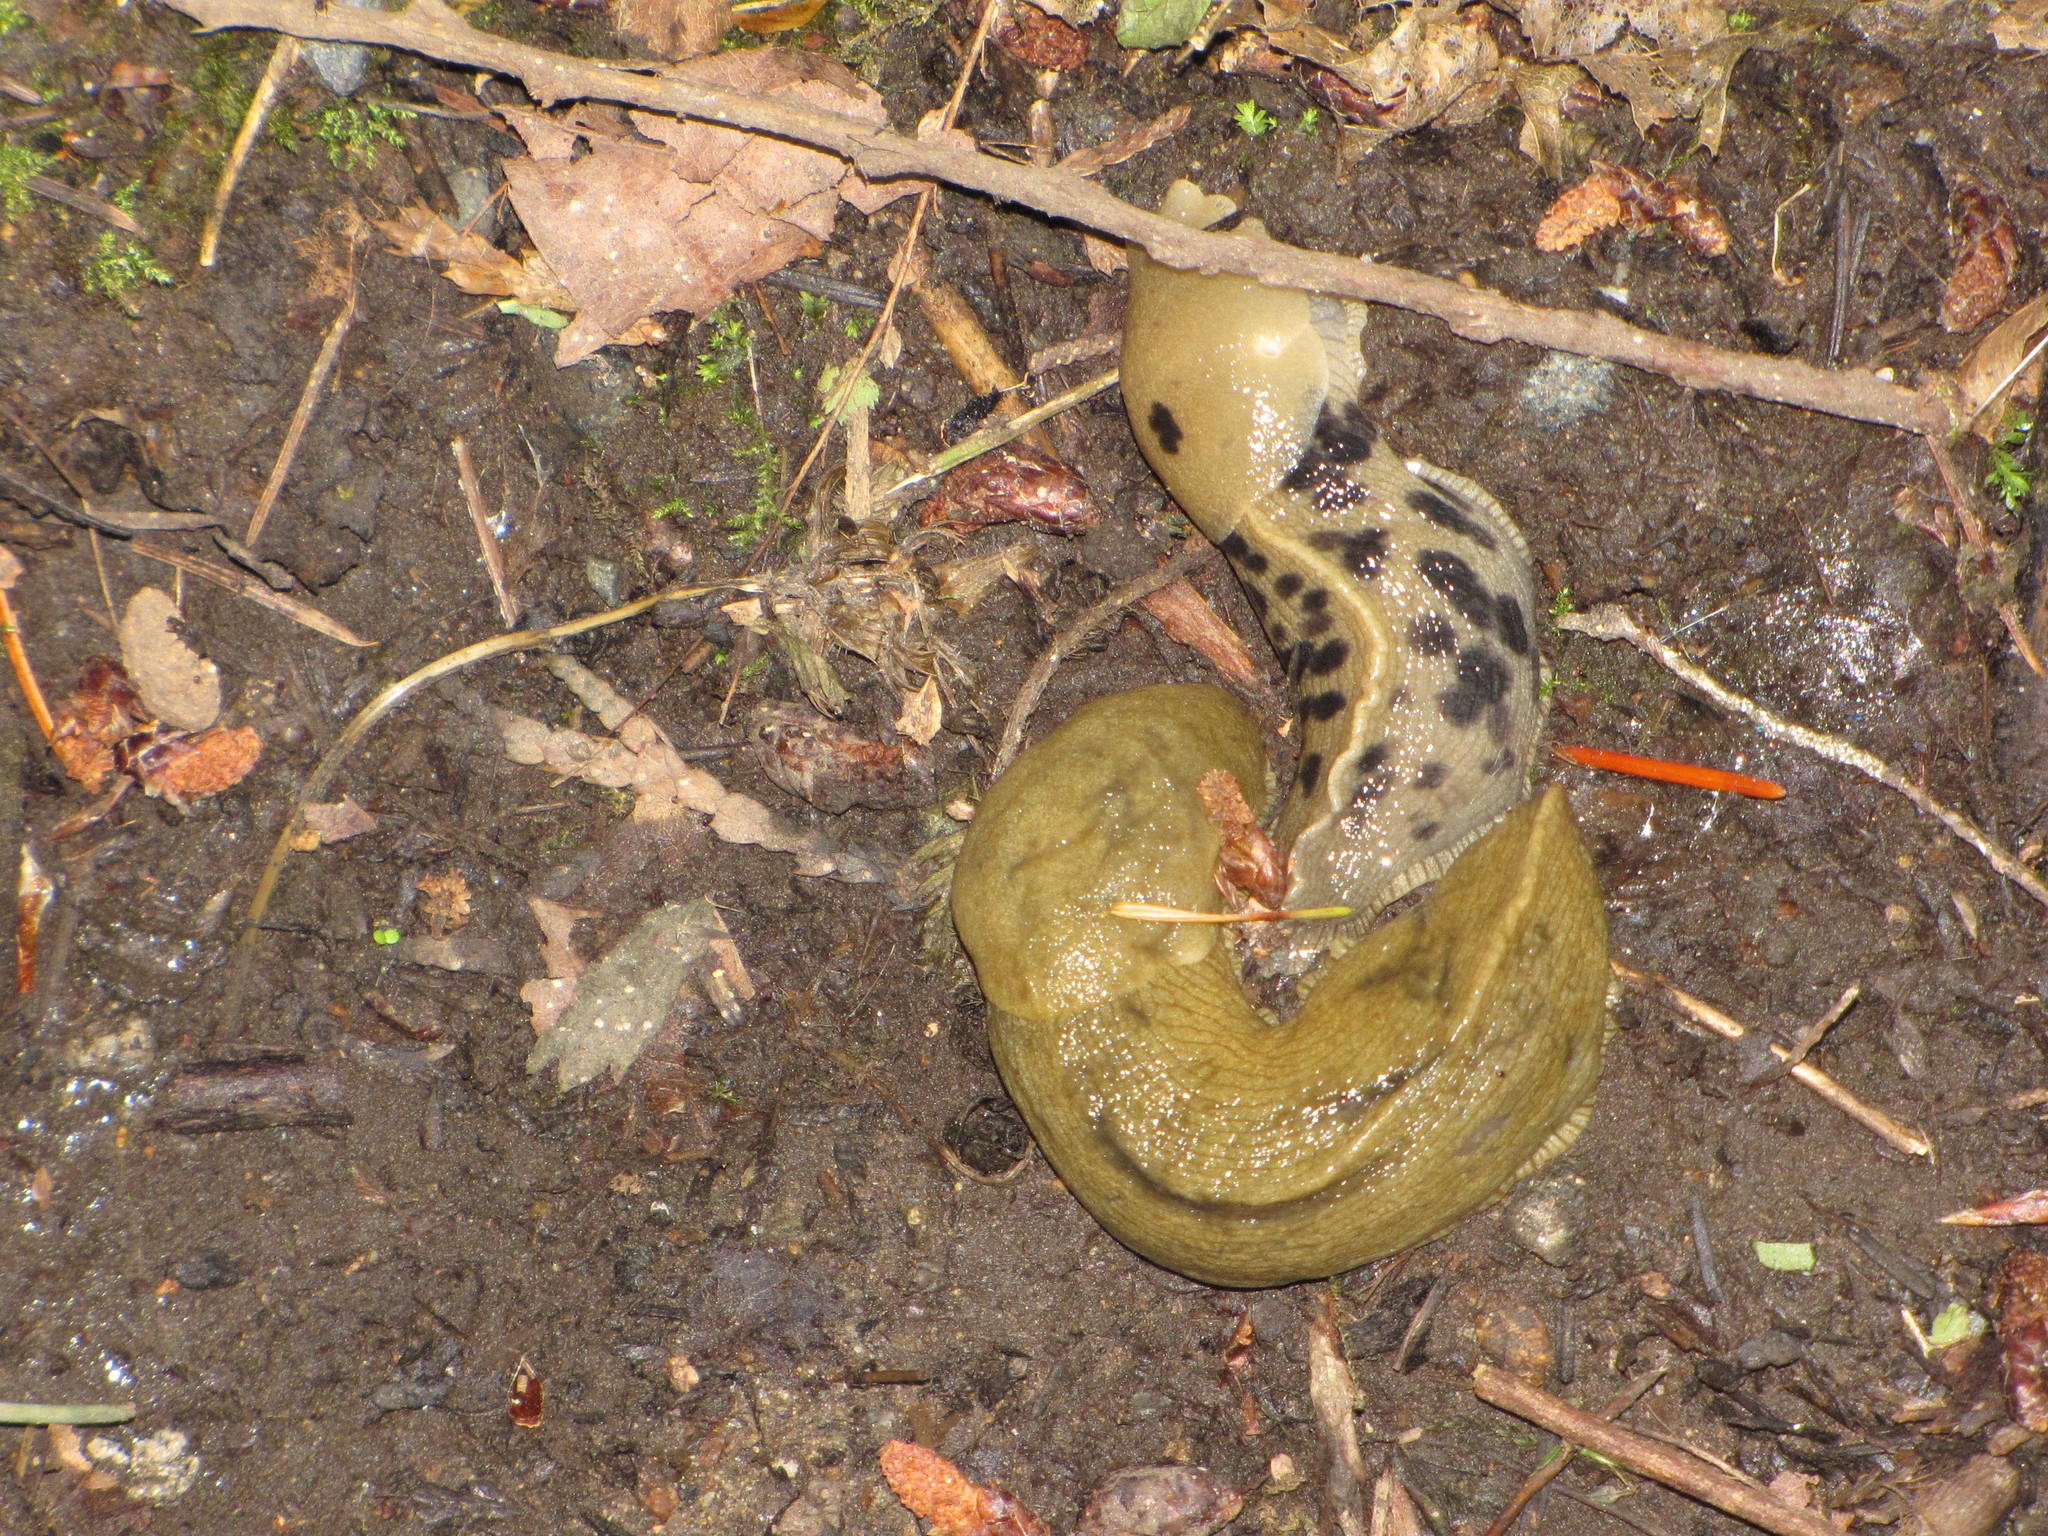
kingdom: Animalia
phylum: Mollusca
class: Gastropoda
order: Stylommatophora
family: Ariolimacidae
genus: Ariolimax
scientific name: Ariolimax columbianus
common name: Pacific banana slug
